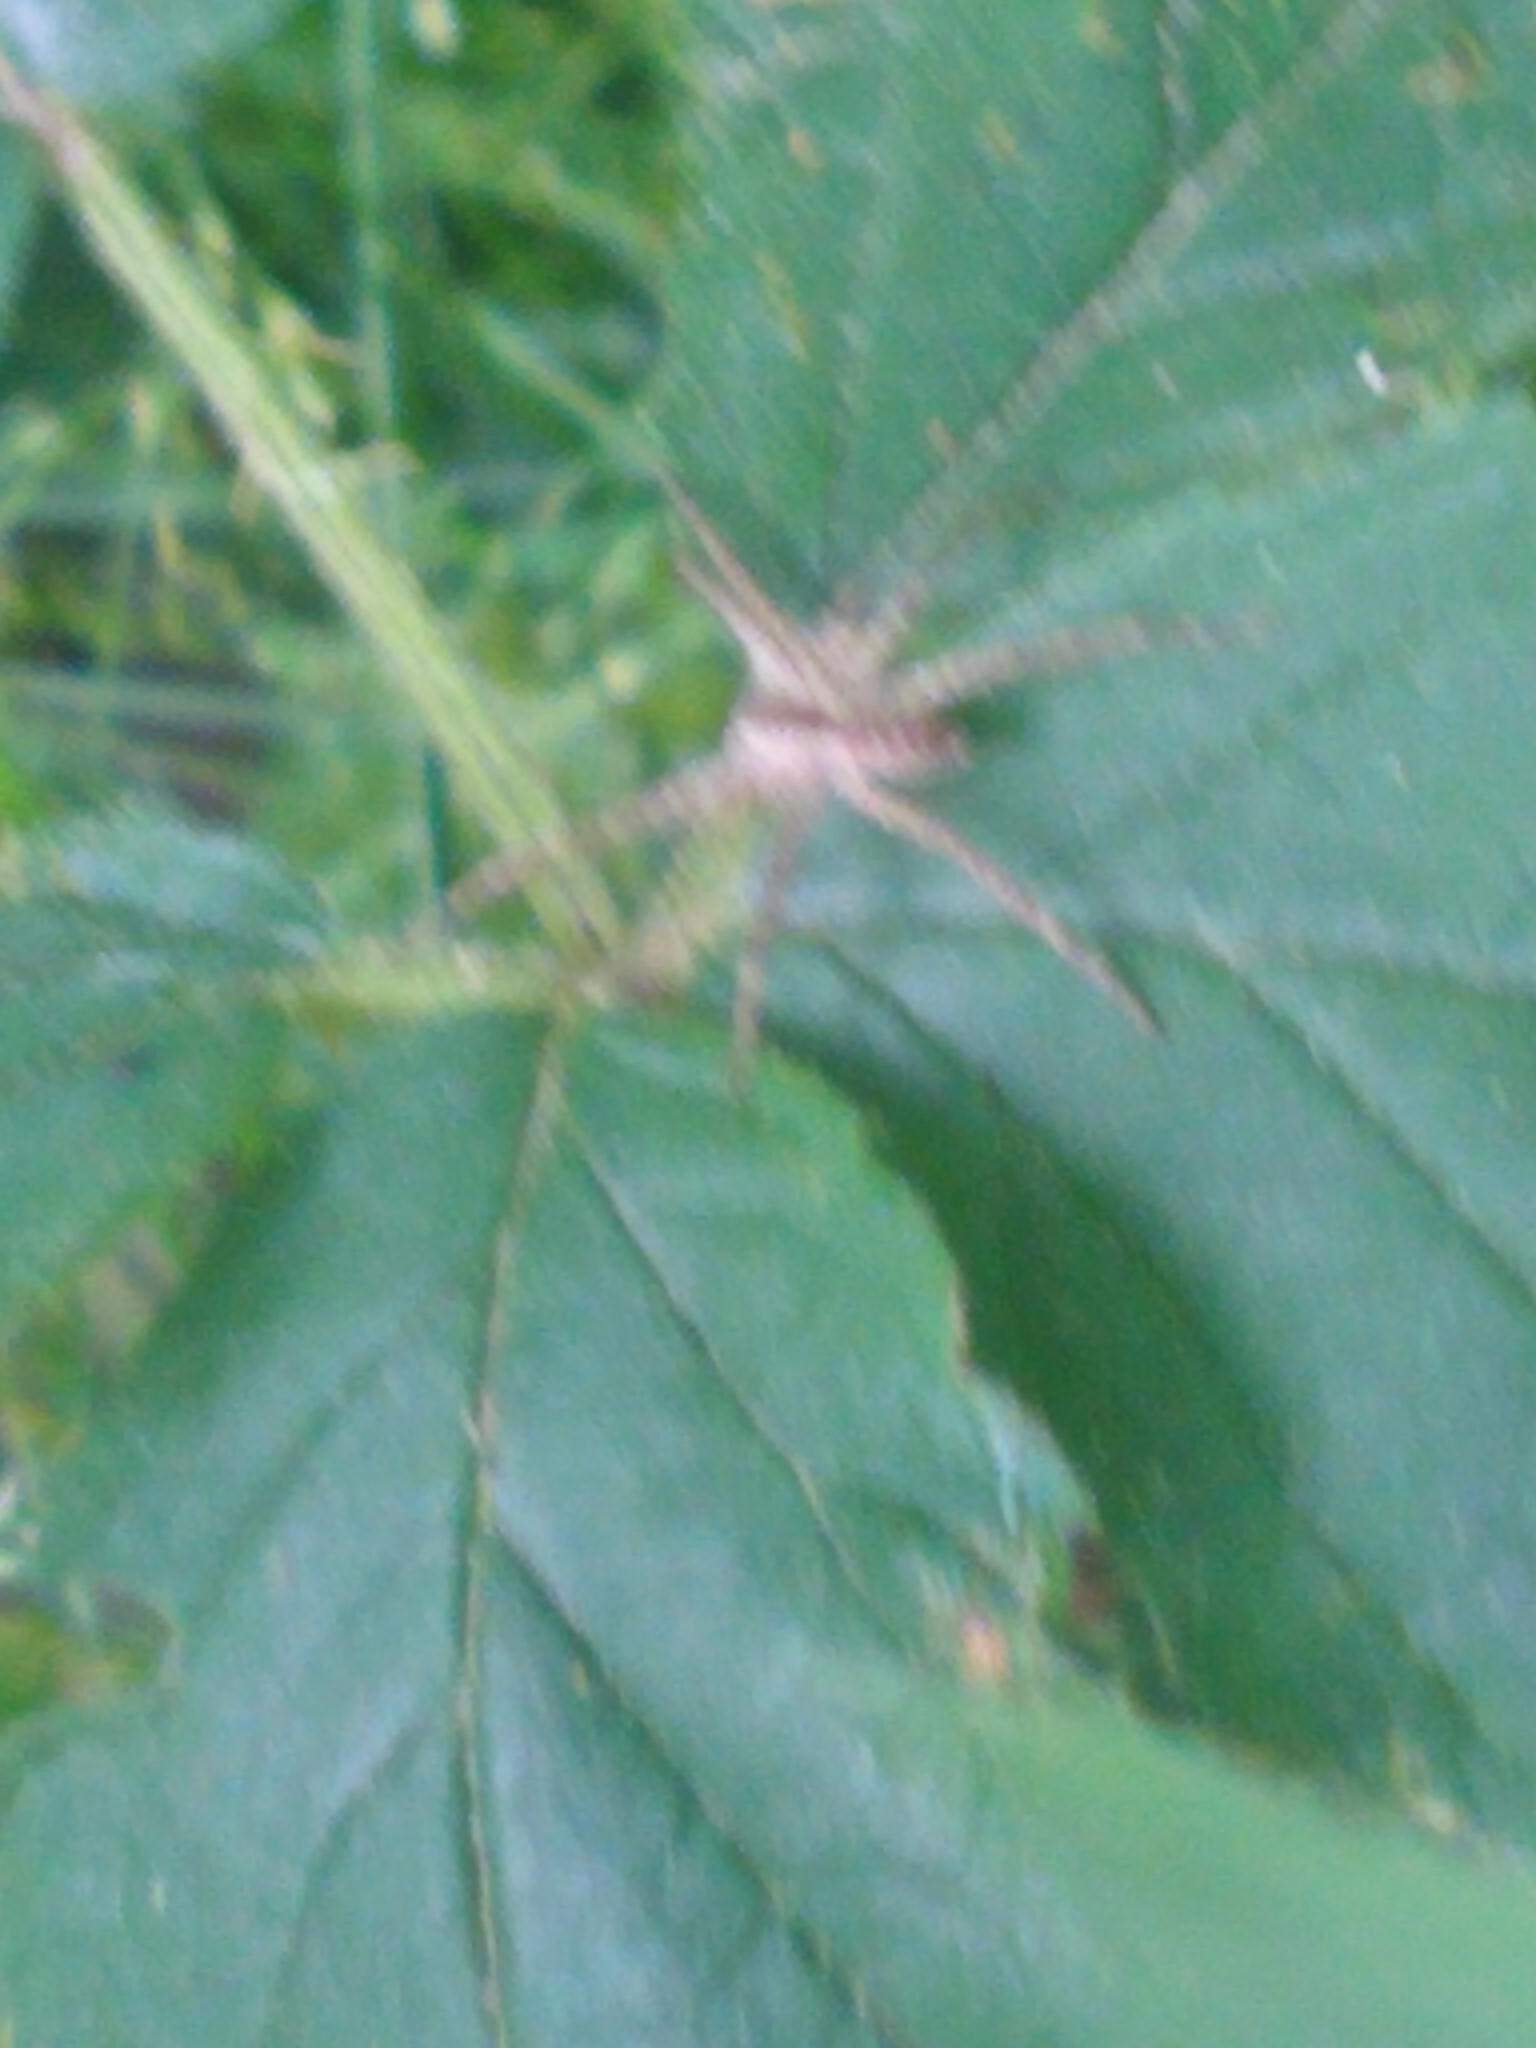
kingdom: Animalia
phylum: Arthropoda
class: Arachnida
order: Araneae
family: Pisauridae
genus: Pisaurina
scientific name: Pisaurina mira
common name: American nursery web spider
